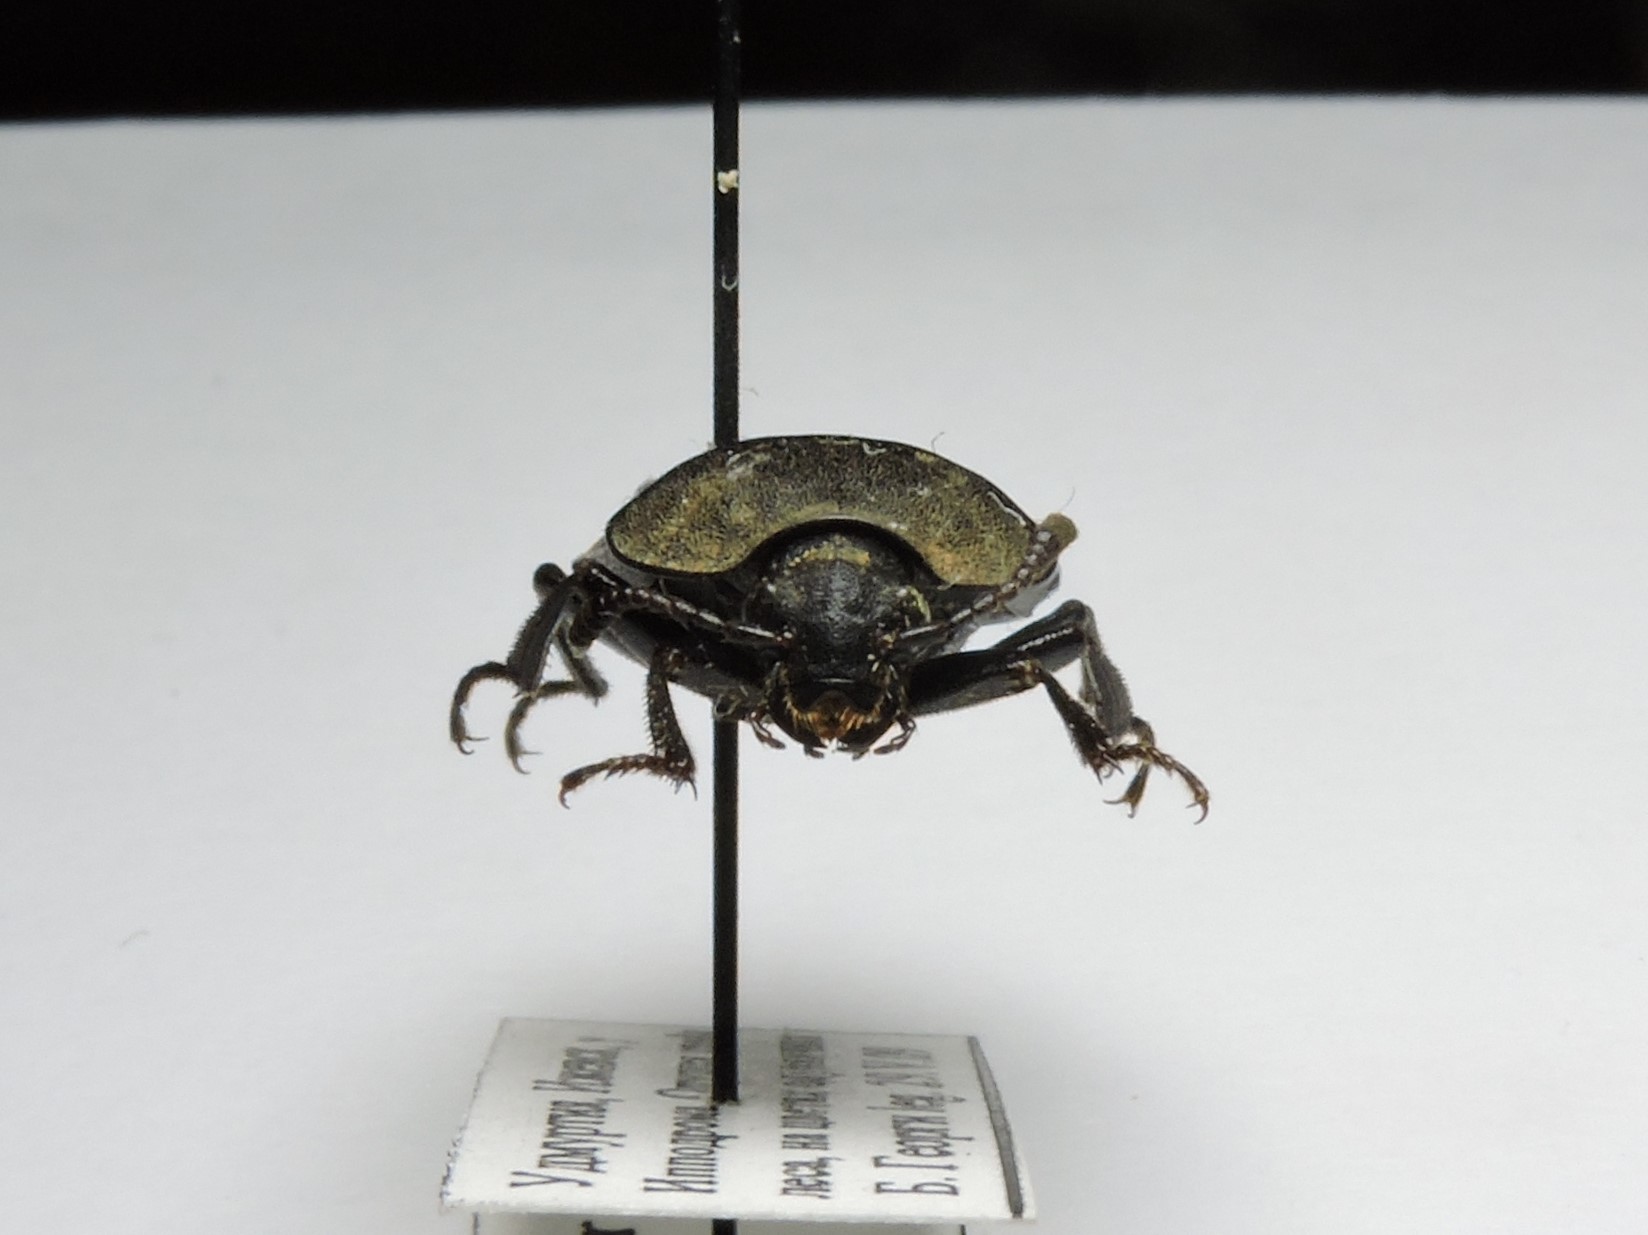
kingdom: Animalia
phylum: Arthropoda
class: Insecta
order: Coleoptera
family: Staphylinidae
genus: Silpha
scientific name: Silpha tristis
